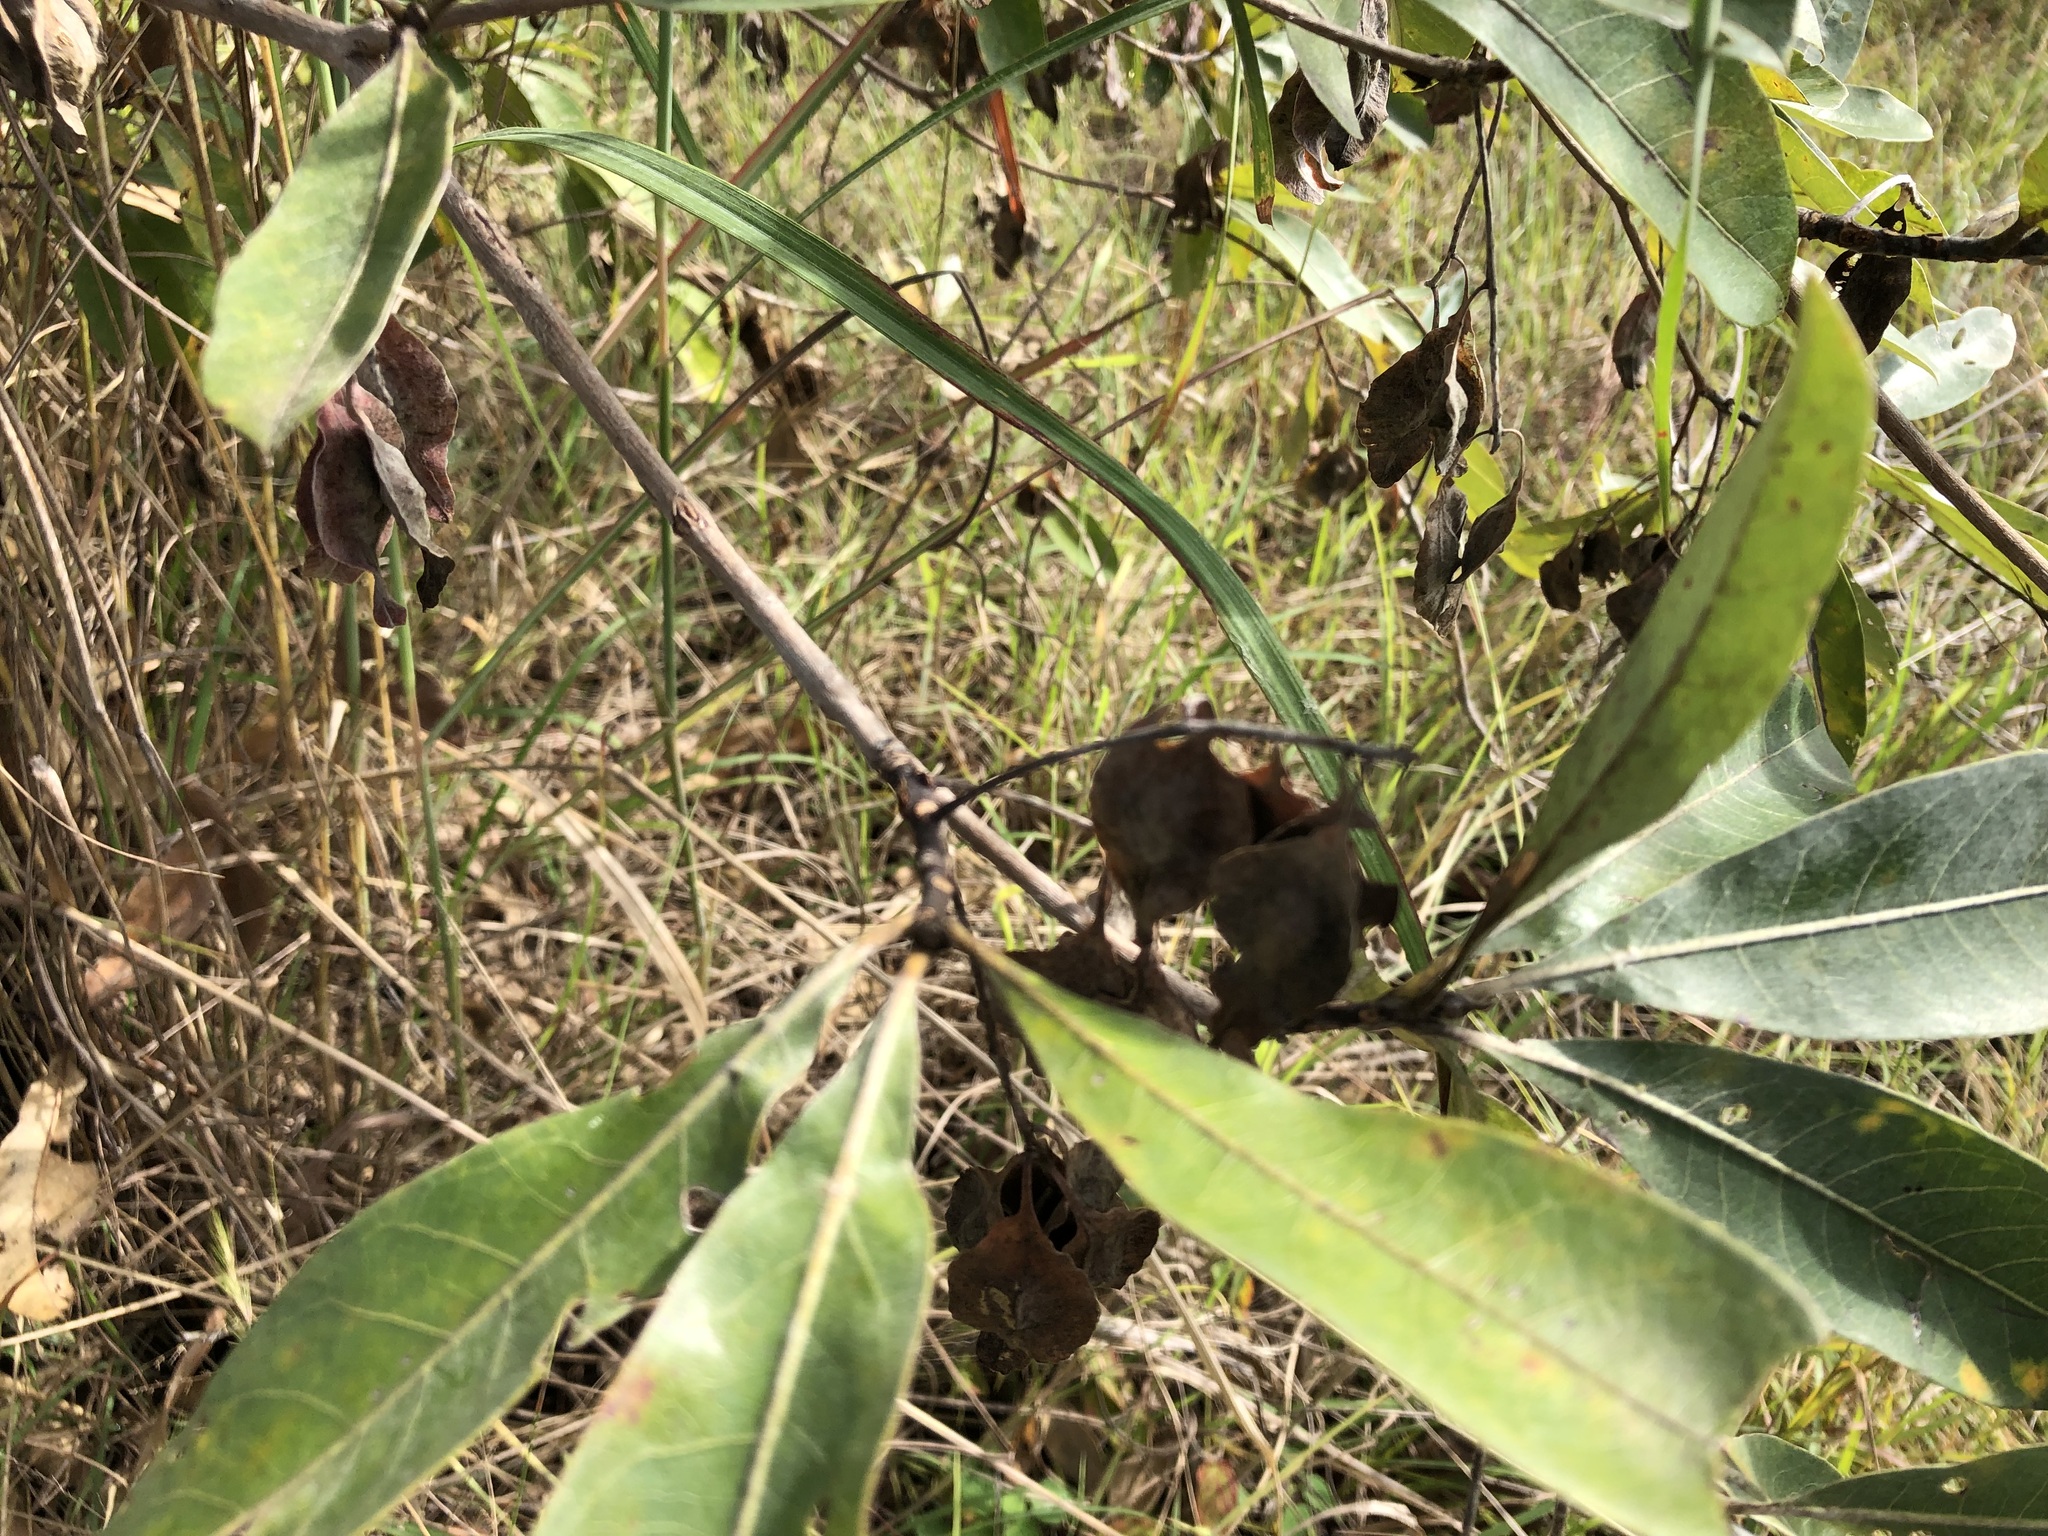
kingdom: Plantae
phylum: Tracheophyta
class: Magnoliopsida
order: Myrtales
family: Combretaceae
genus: Terminalia
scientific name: Terminalia sericea
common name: Clusterleaf
